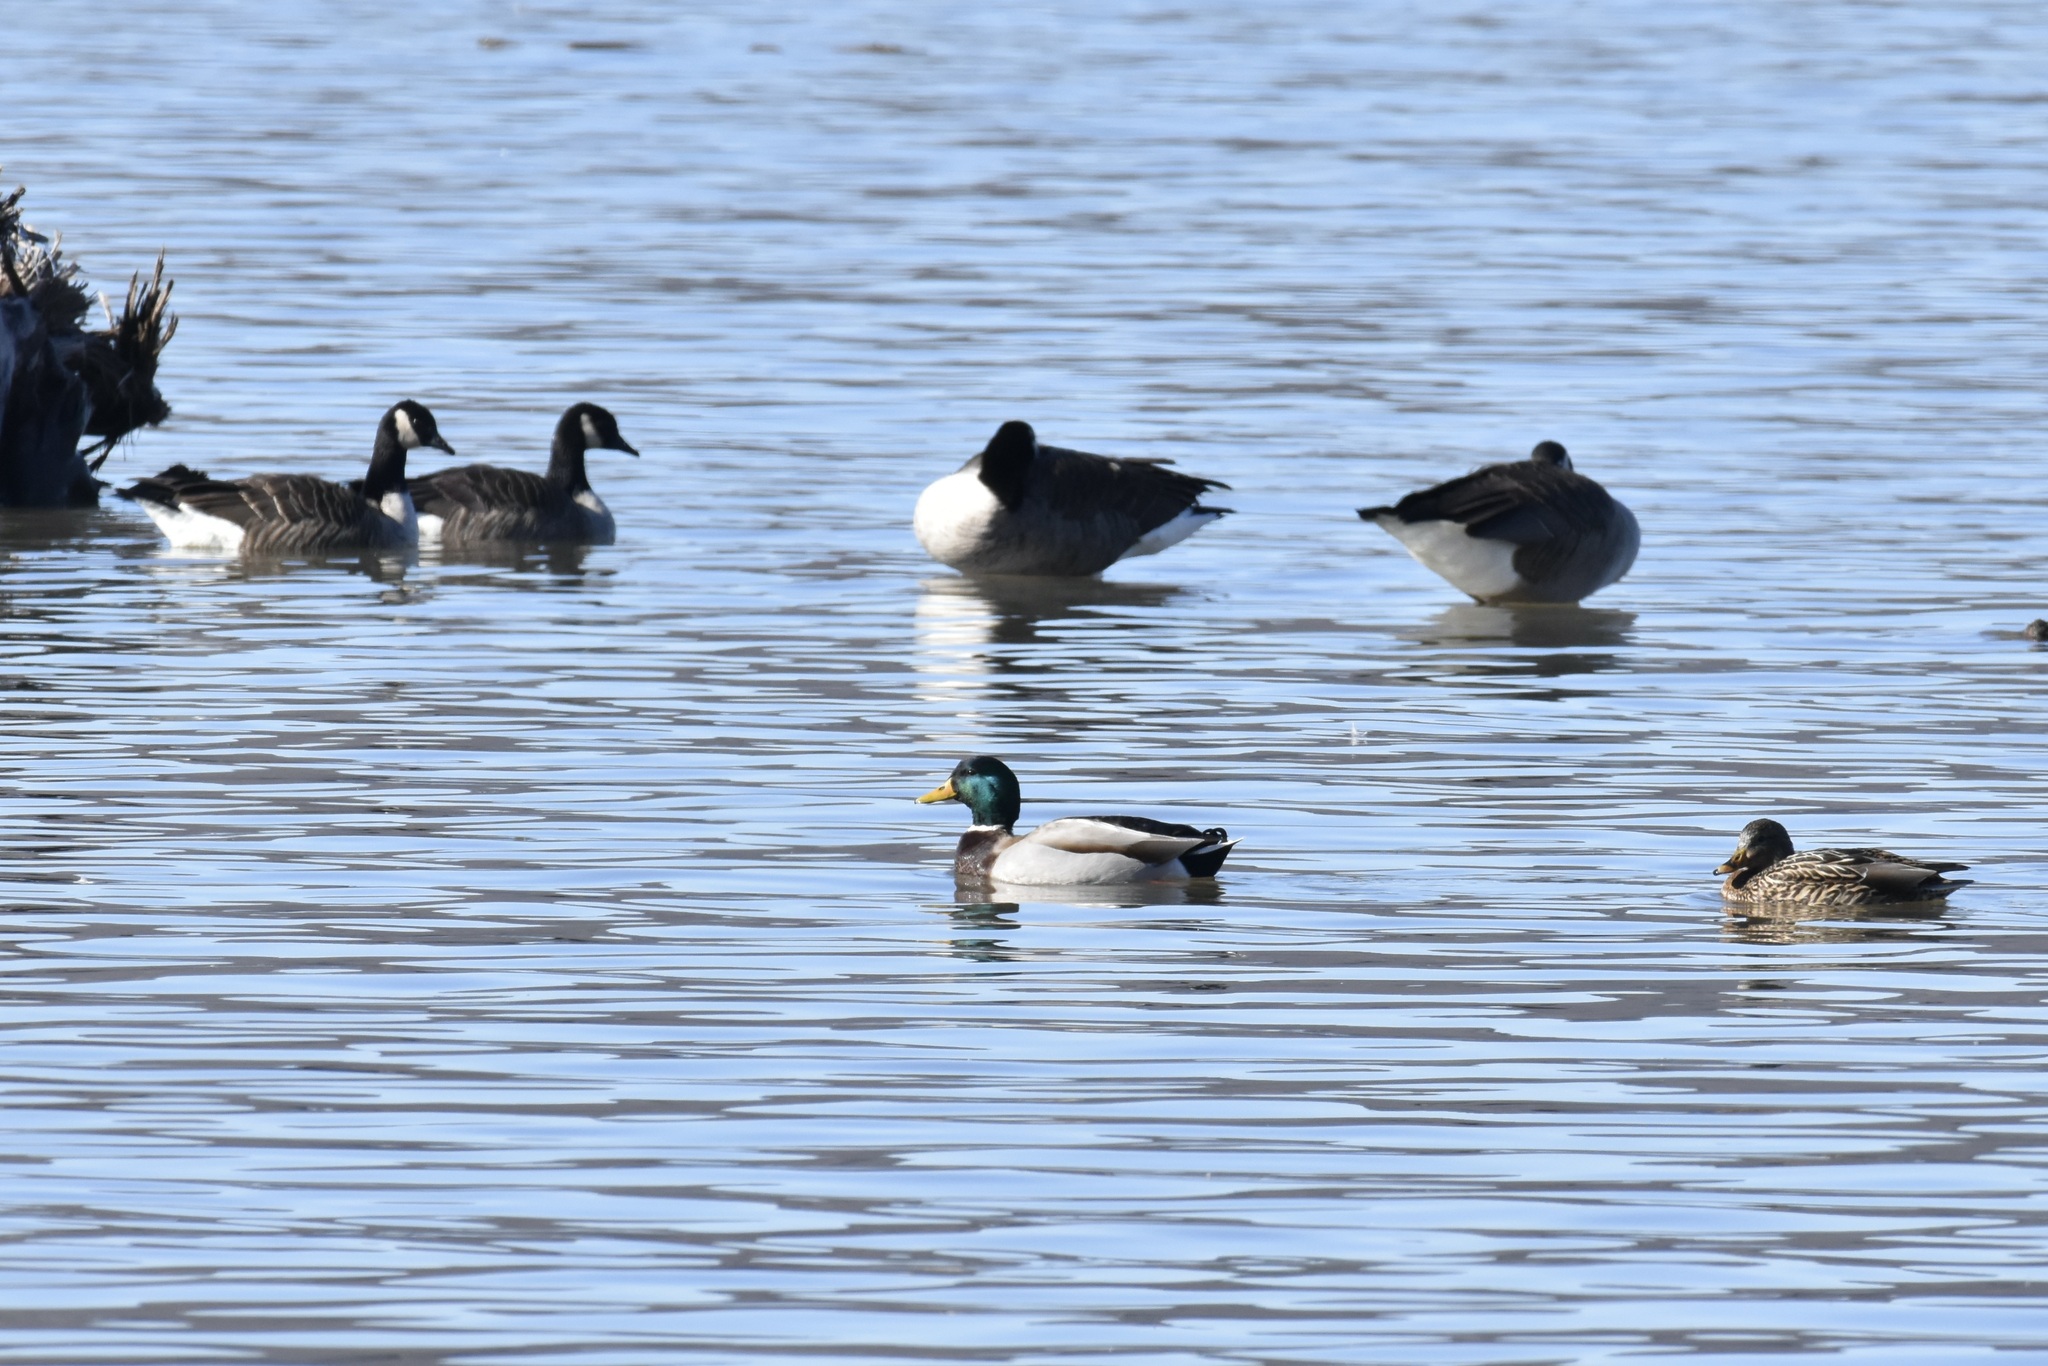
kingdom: Animalia
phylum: Chordata
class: Aves
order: Anseriformes
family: Anatidae
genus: Anas
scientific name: Anas platyrhynchos
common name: Mallard
